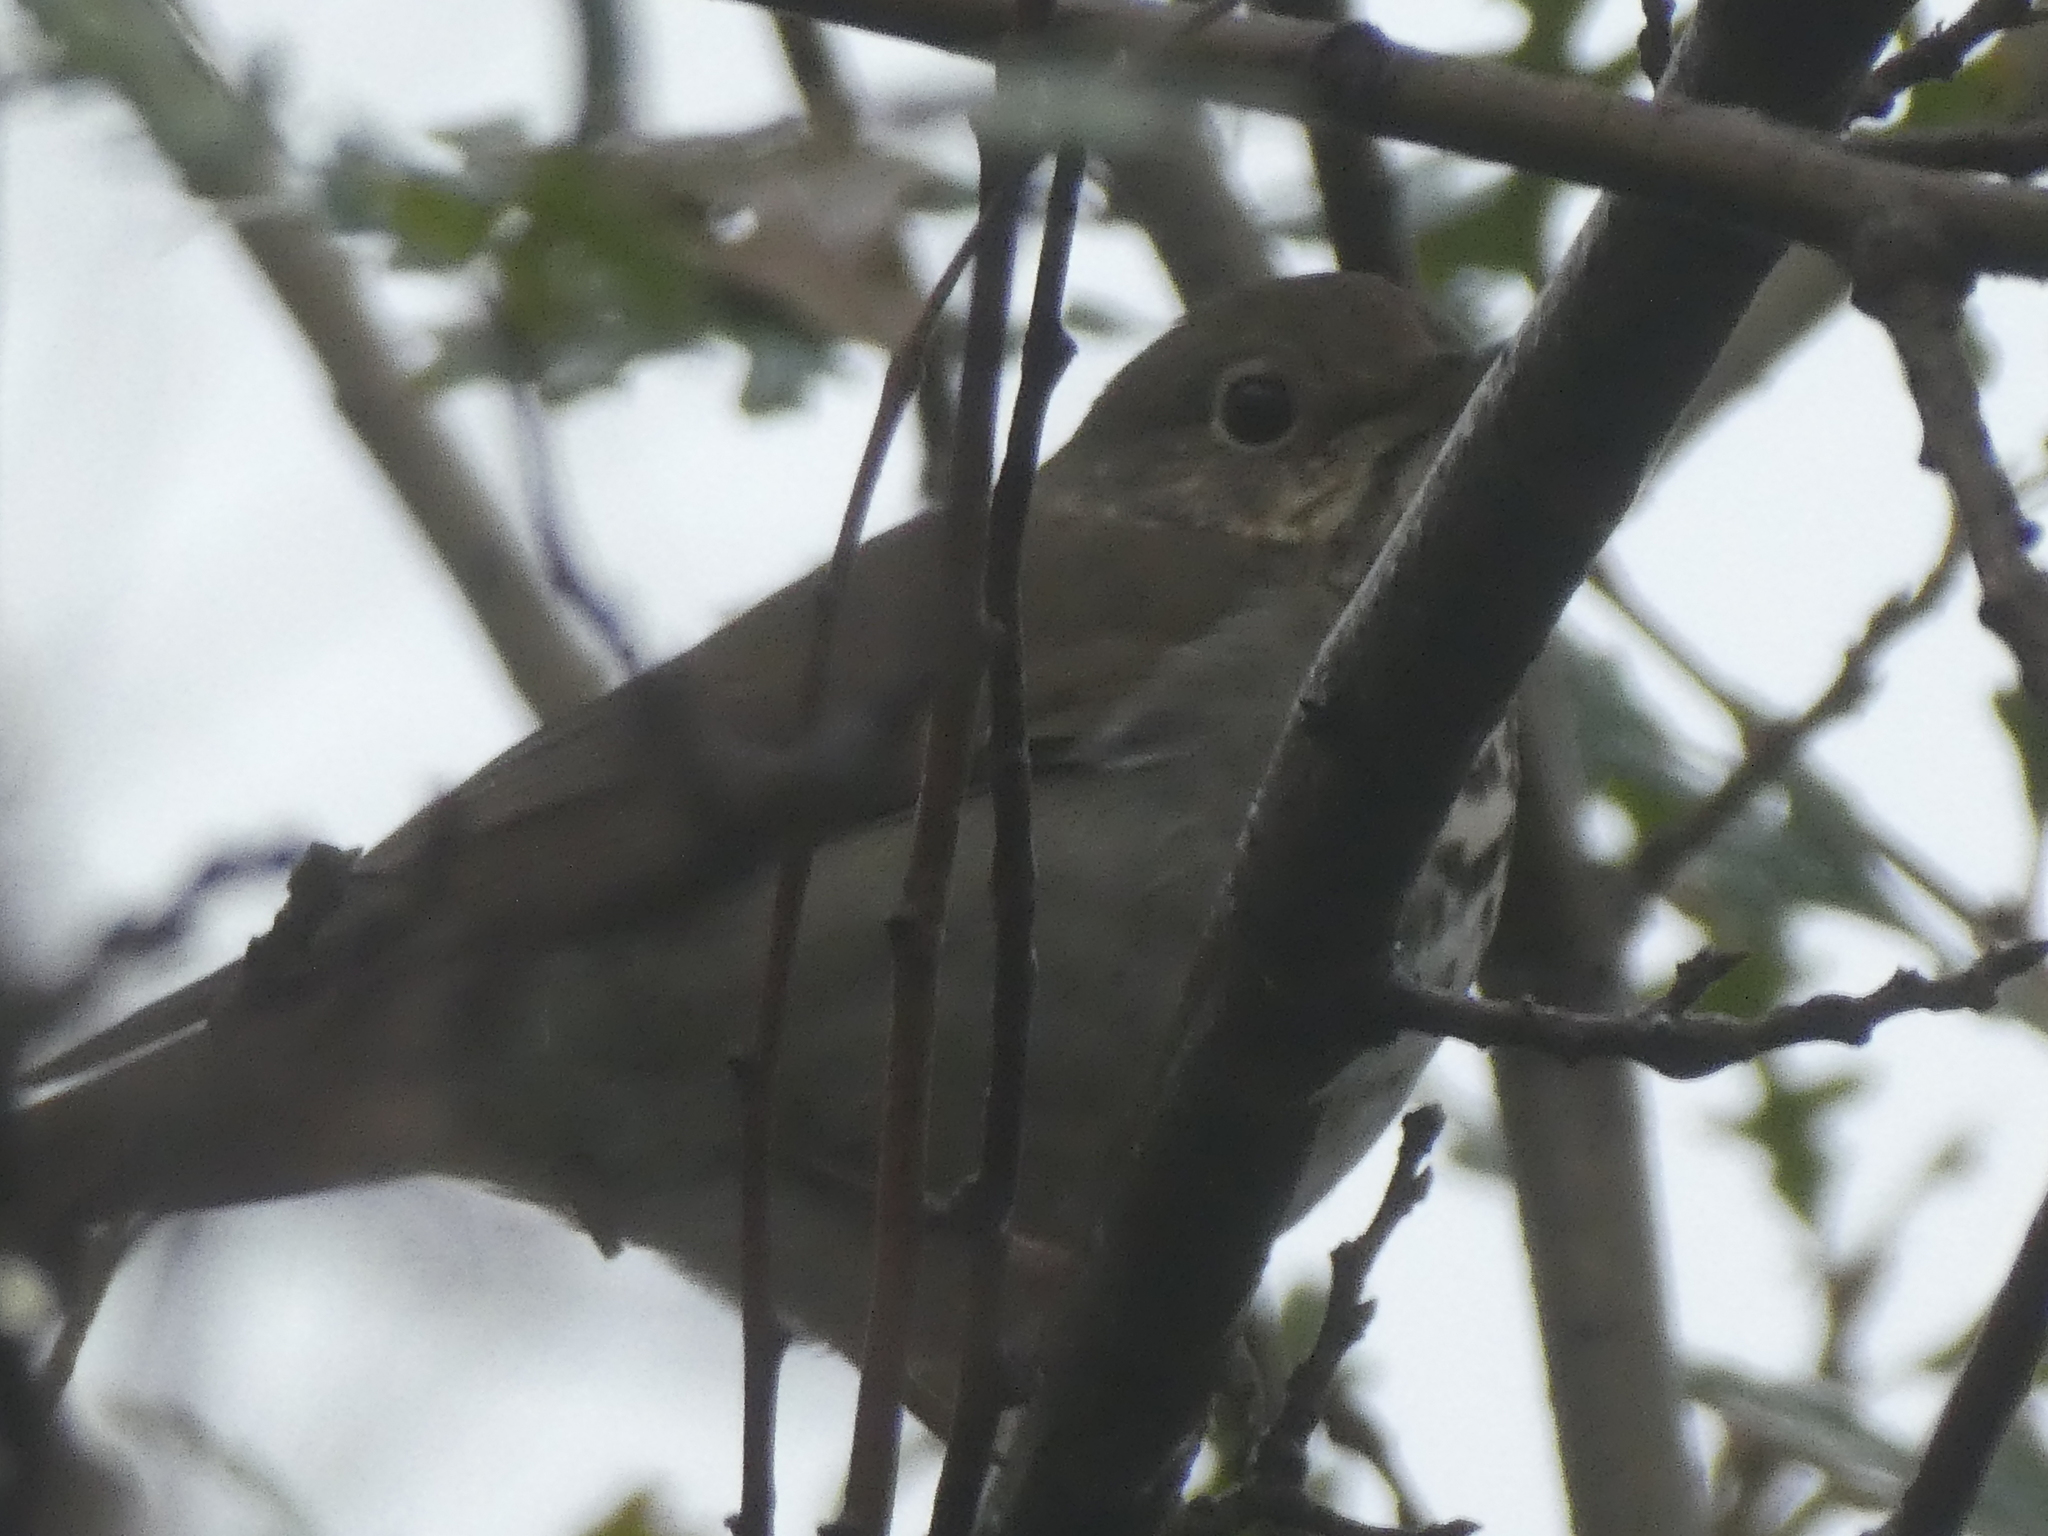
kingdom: Animalia
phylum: Chordata
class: Aves
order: Passeriformes
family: Turdidae
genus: Catharus
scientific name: Catharus guttatus
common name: Hermit thrush
